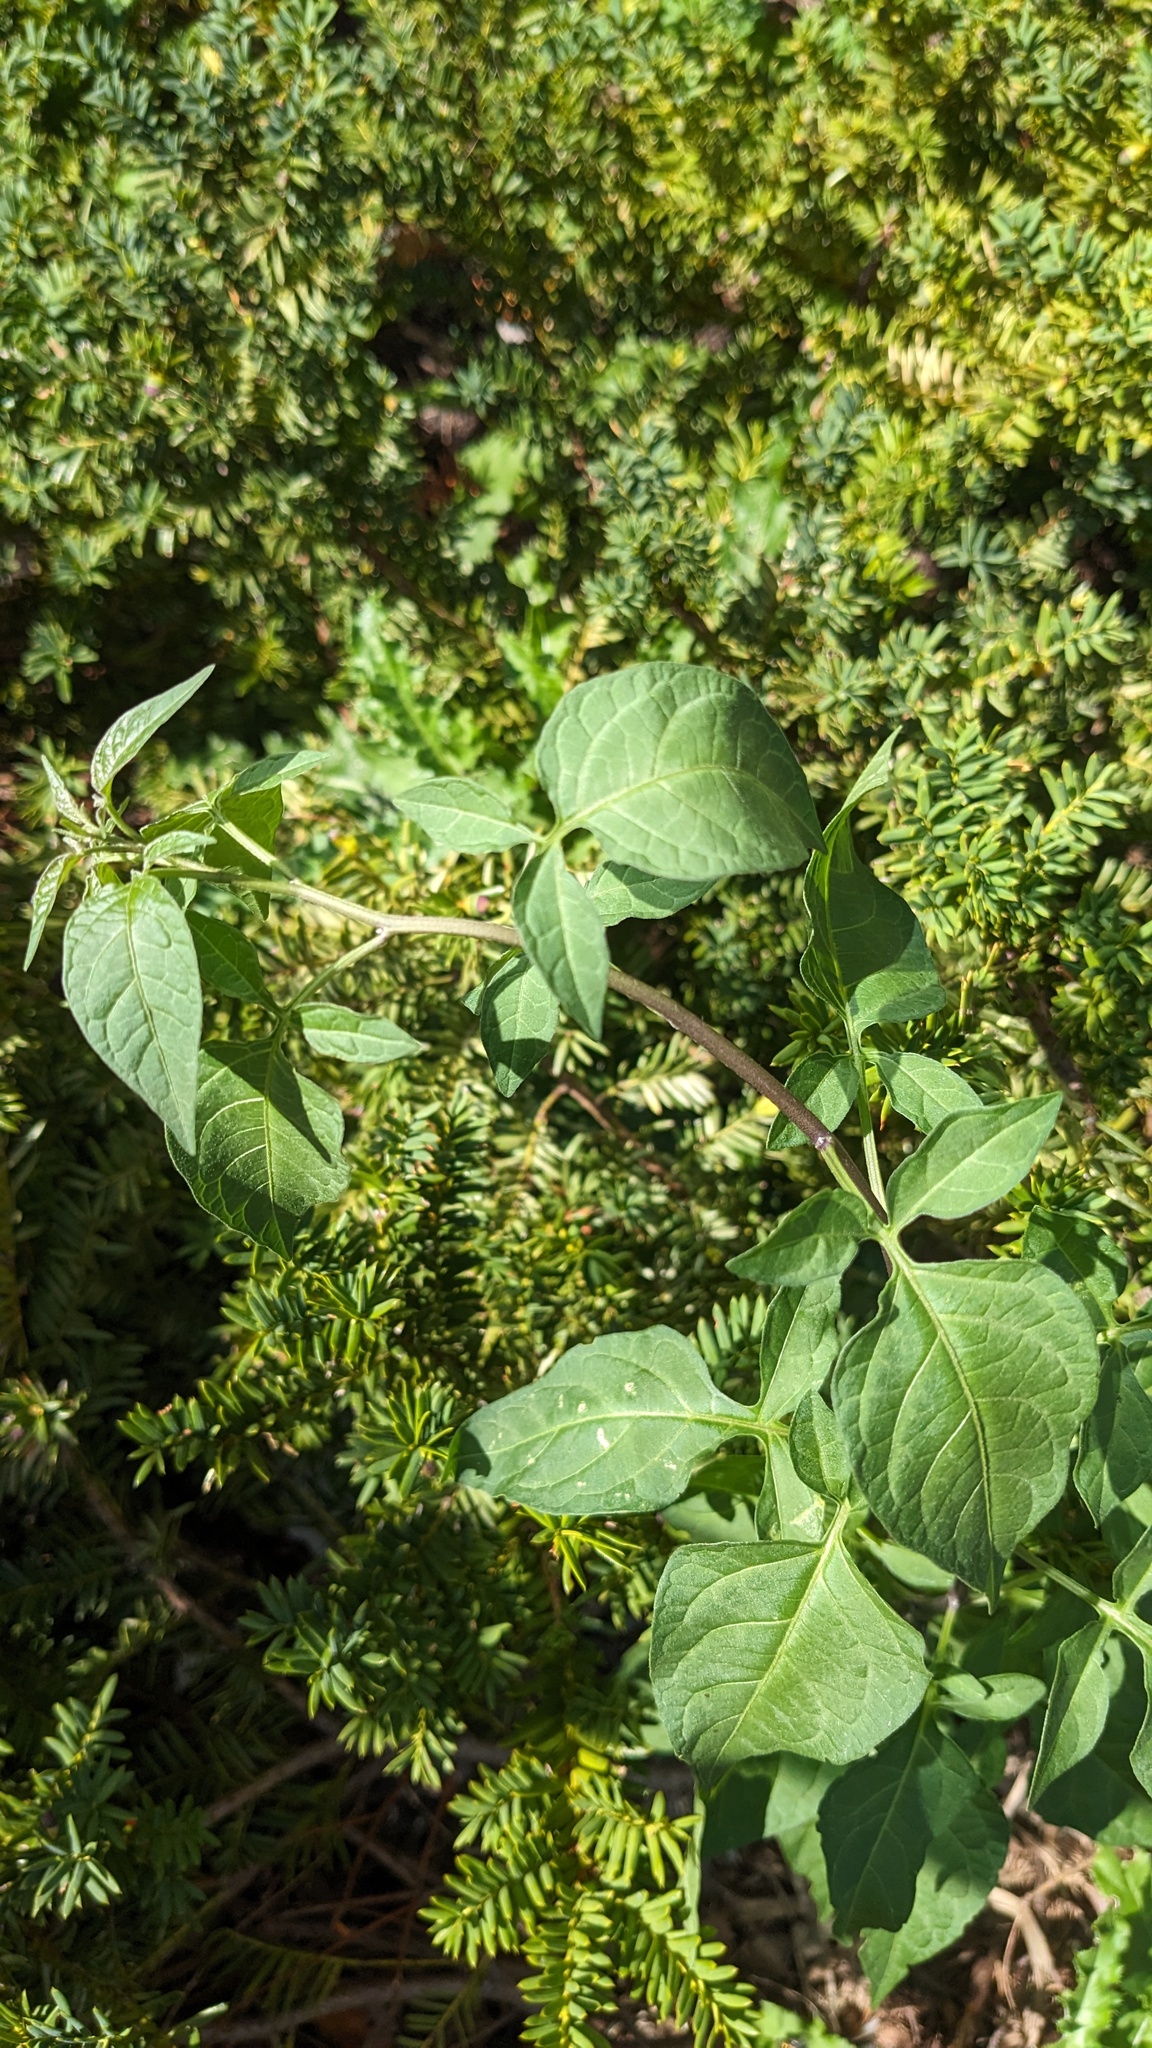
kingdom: Plantae
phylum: Tracheophyta
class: Magnoliopsida
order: Solanales
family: Solanaceae
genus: Solanum
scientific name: Solanum dulcamara
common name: Climbing nightshade
